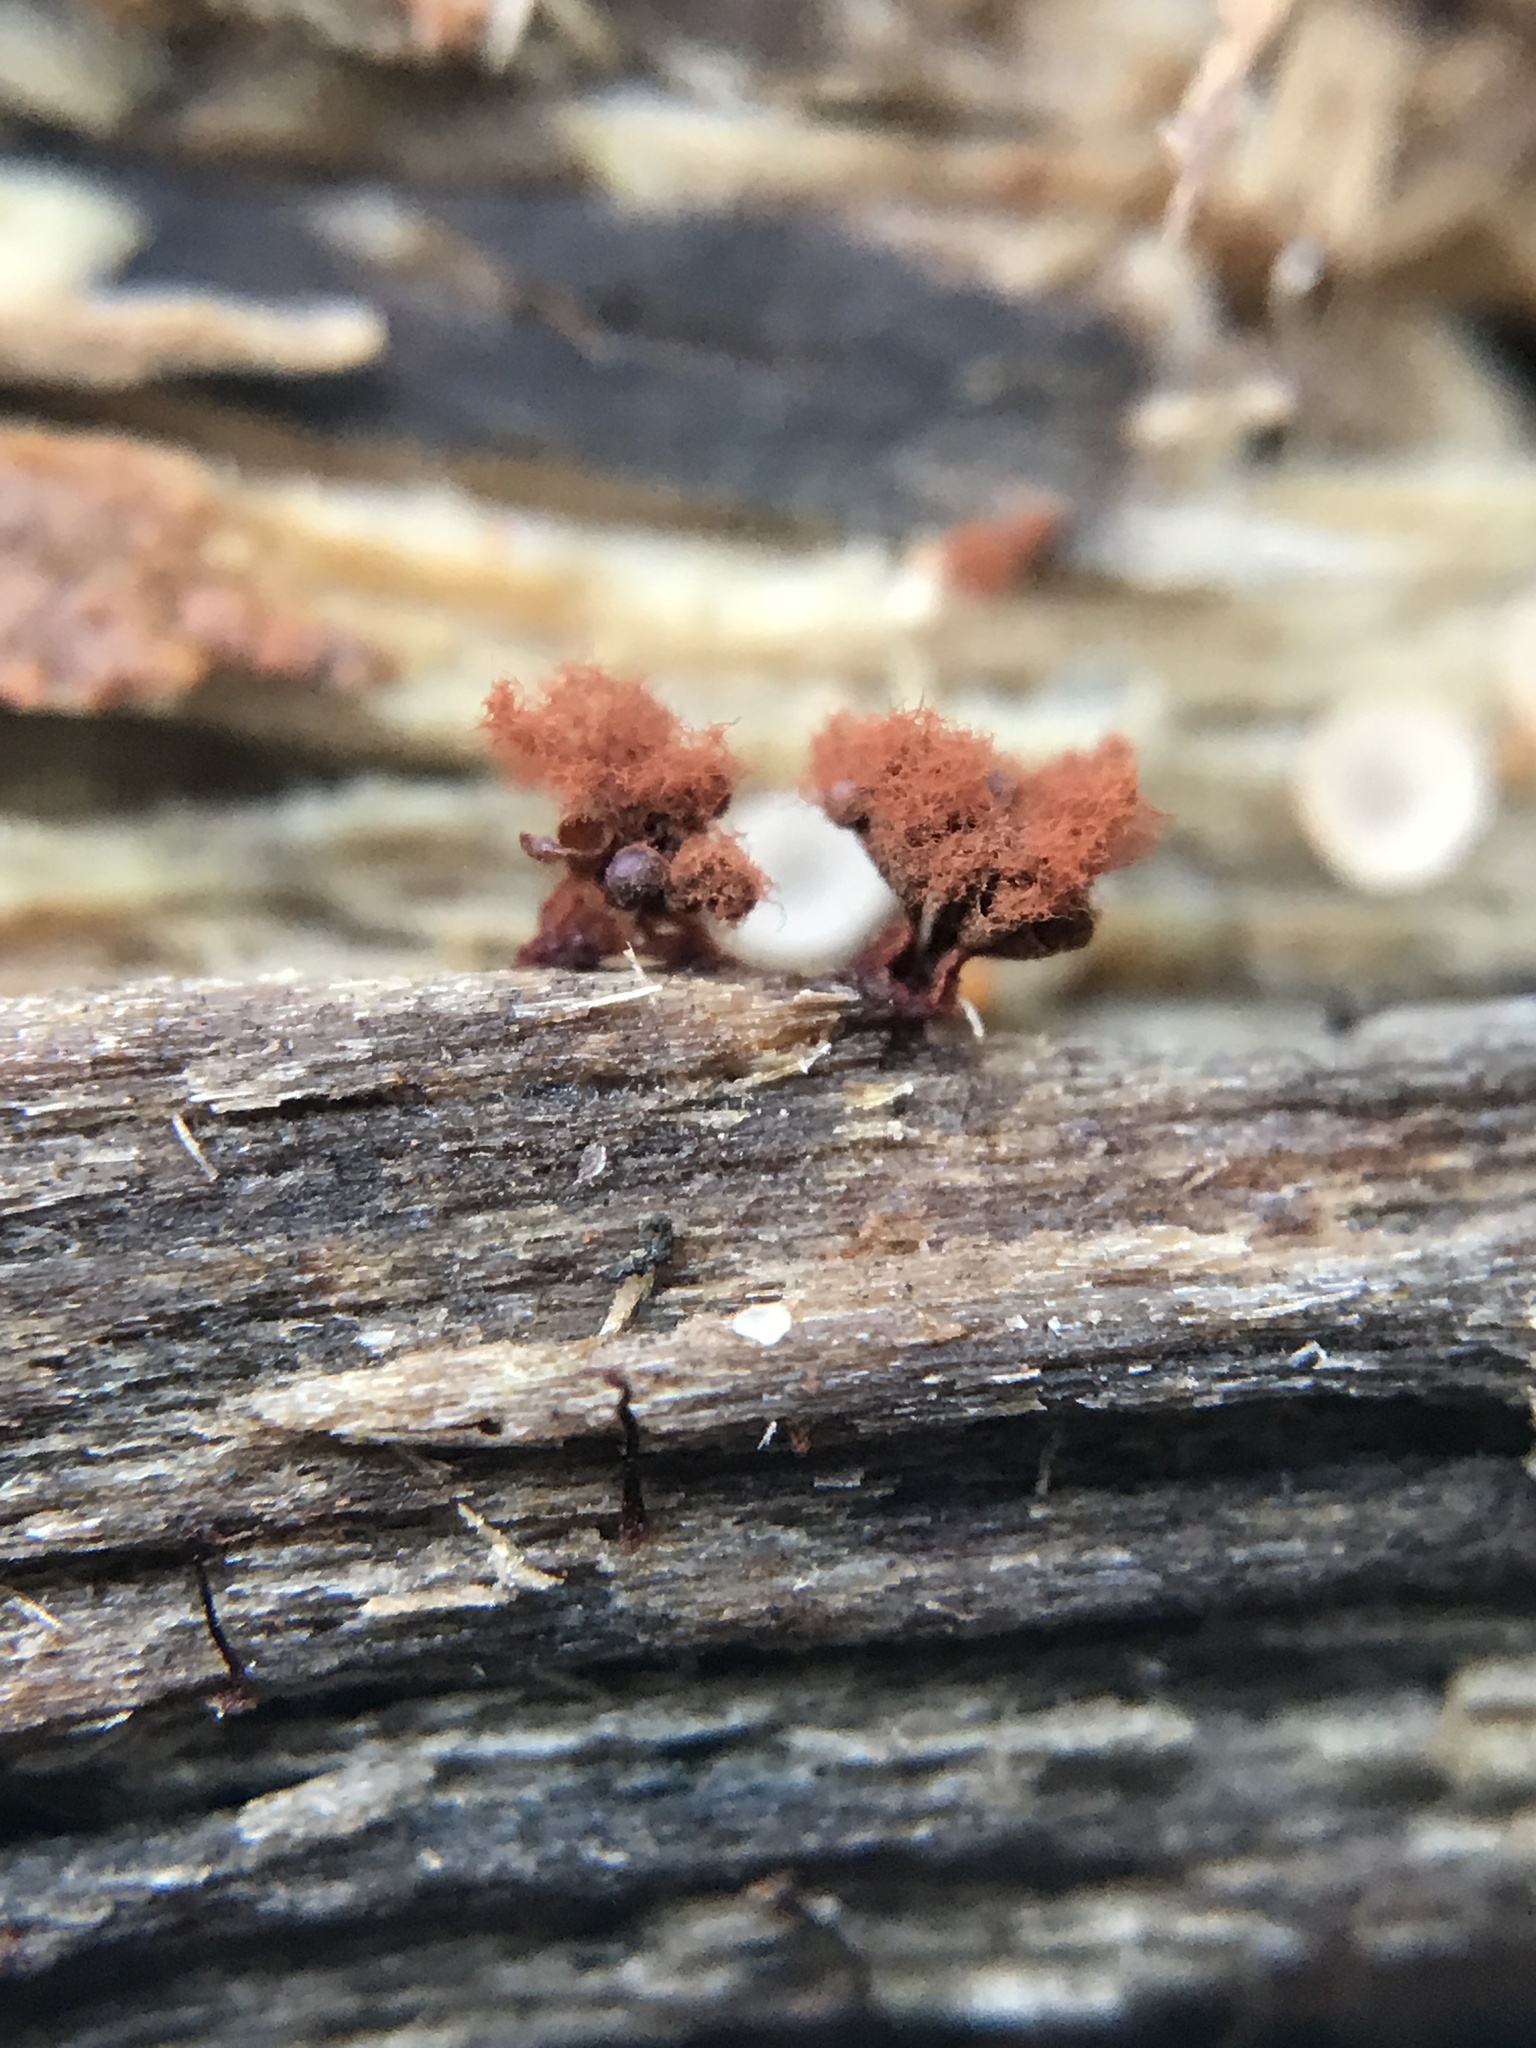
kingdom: Protozoa
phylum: Mycetozoa
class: Myxomycetes
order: Trichiales
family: Trichiaceae
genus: Metatrichia
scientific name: Metatrichia vesparia
